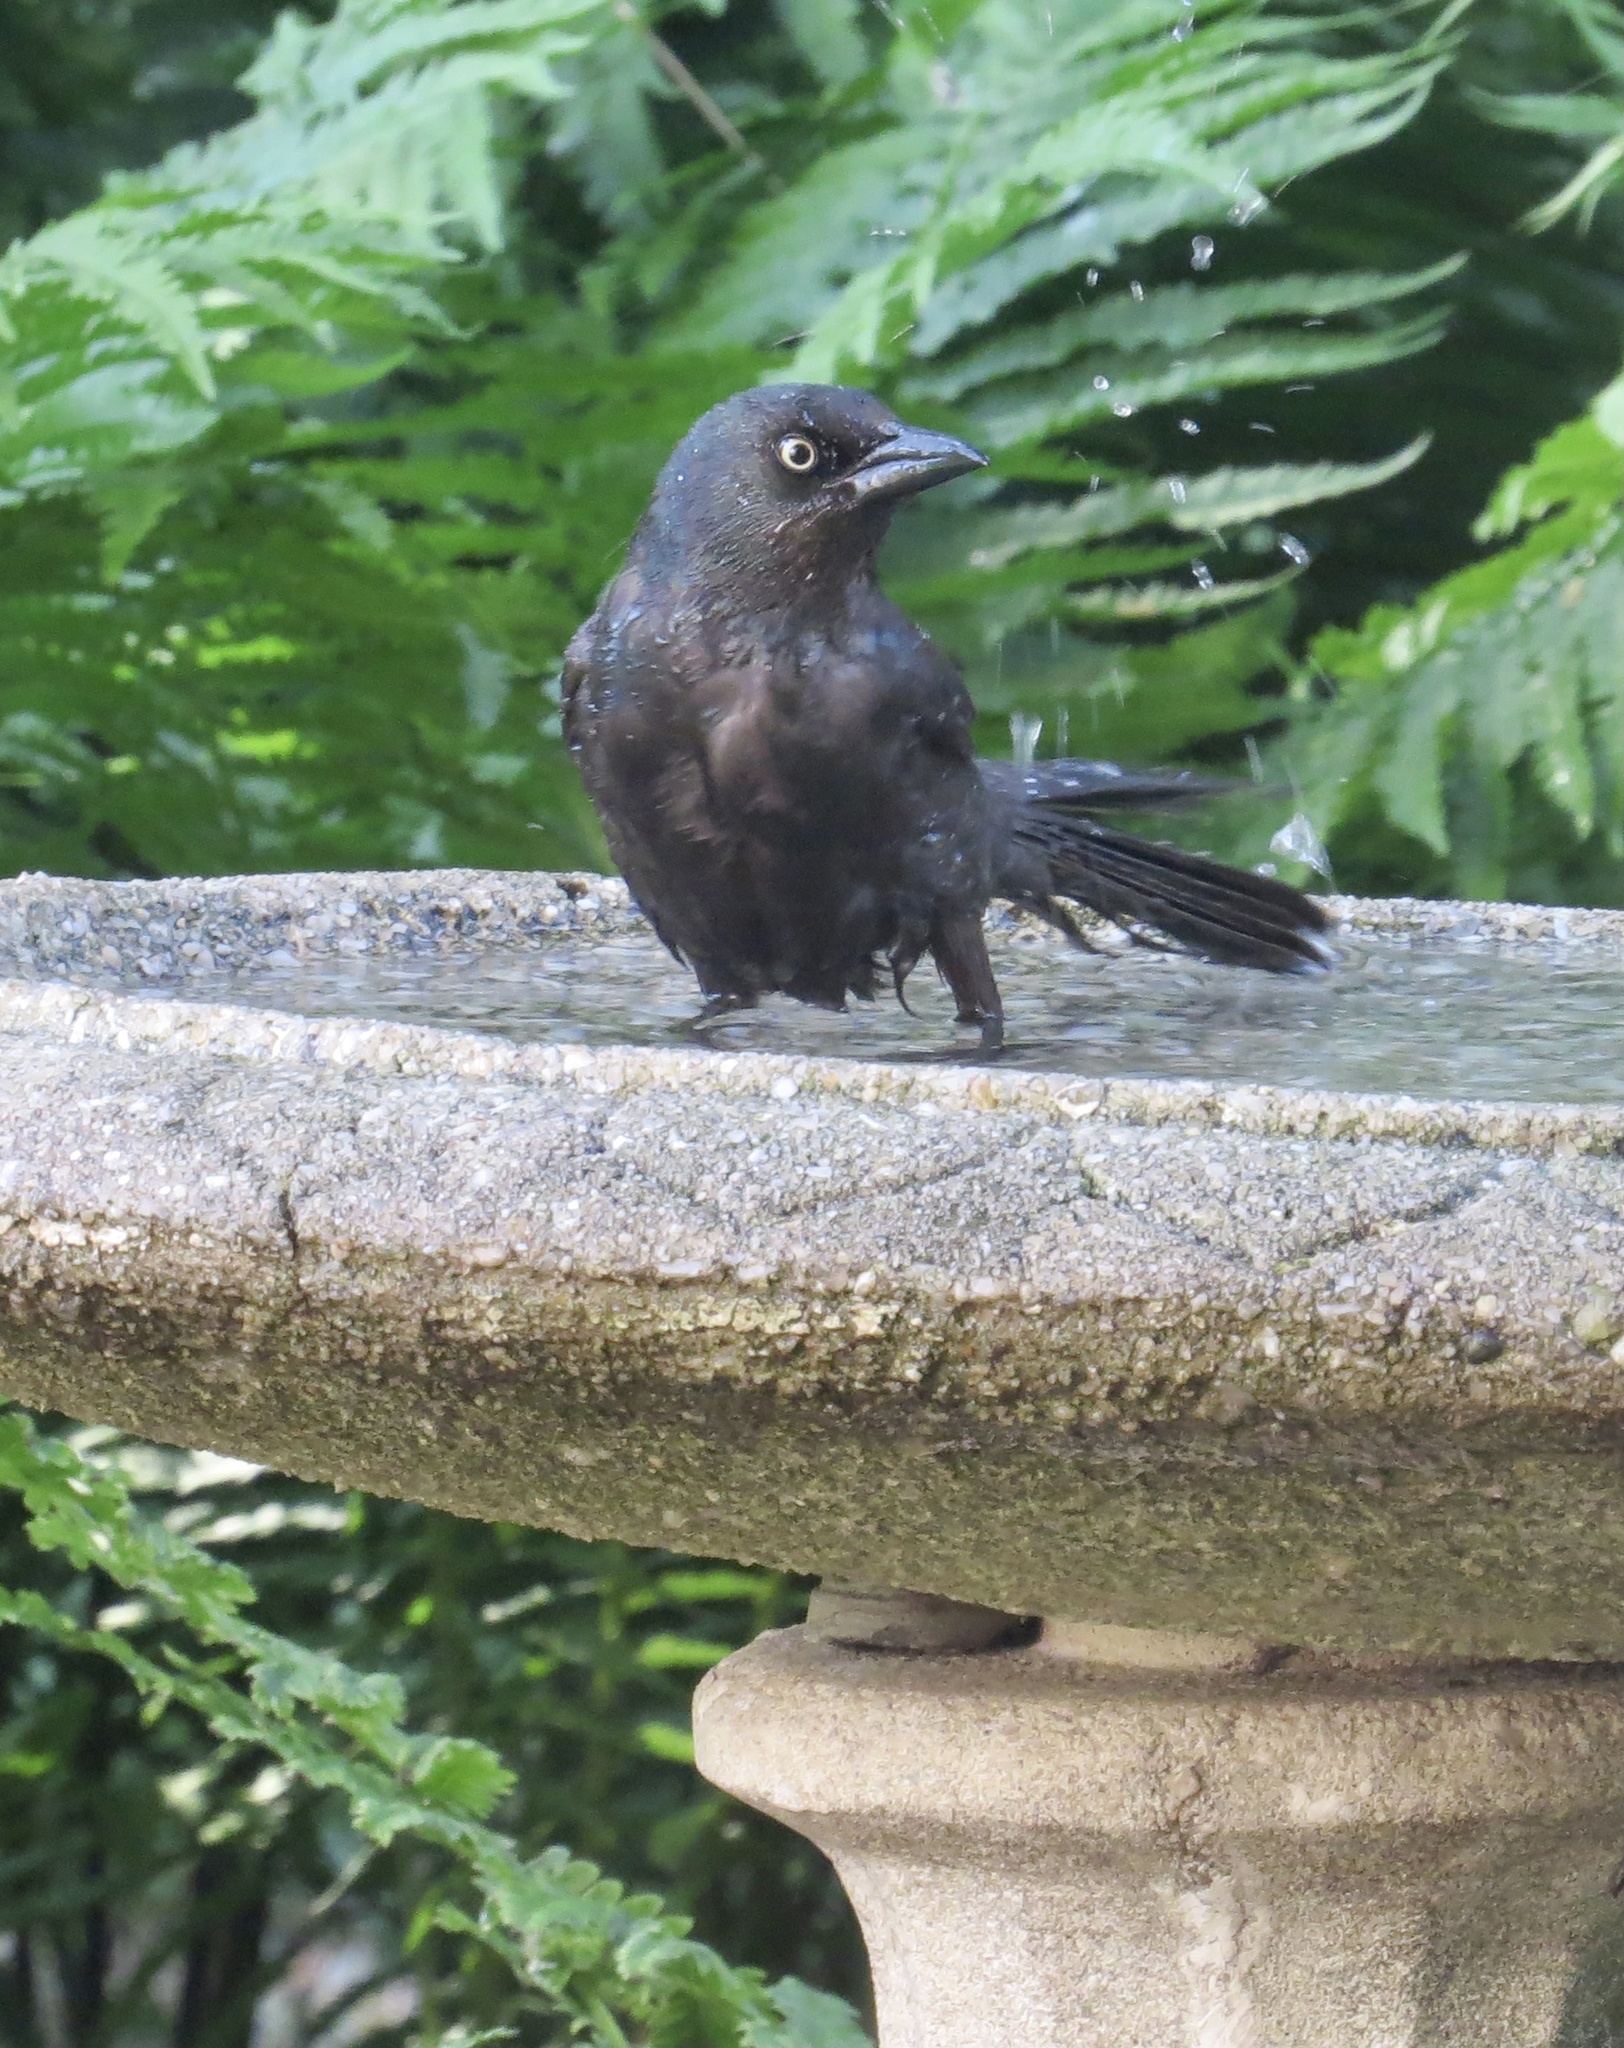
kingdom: Animalia
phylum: Chordata
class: Aves
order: Passeriformes
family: Icteridae
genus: Quiscalus
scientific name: Quiscalus quiscula
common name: Common grackle
